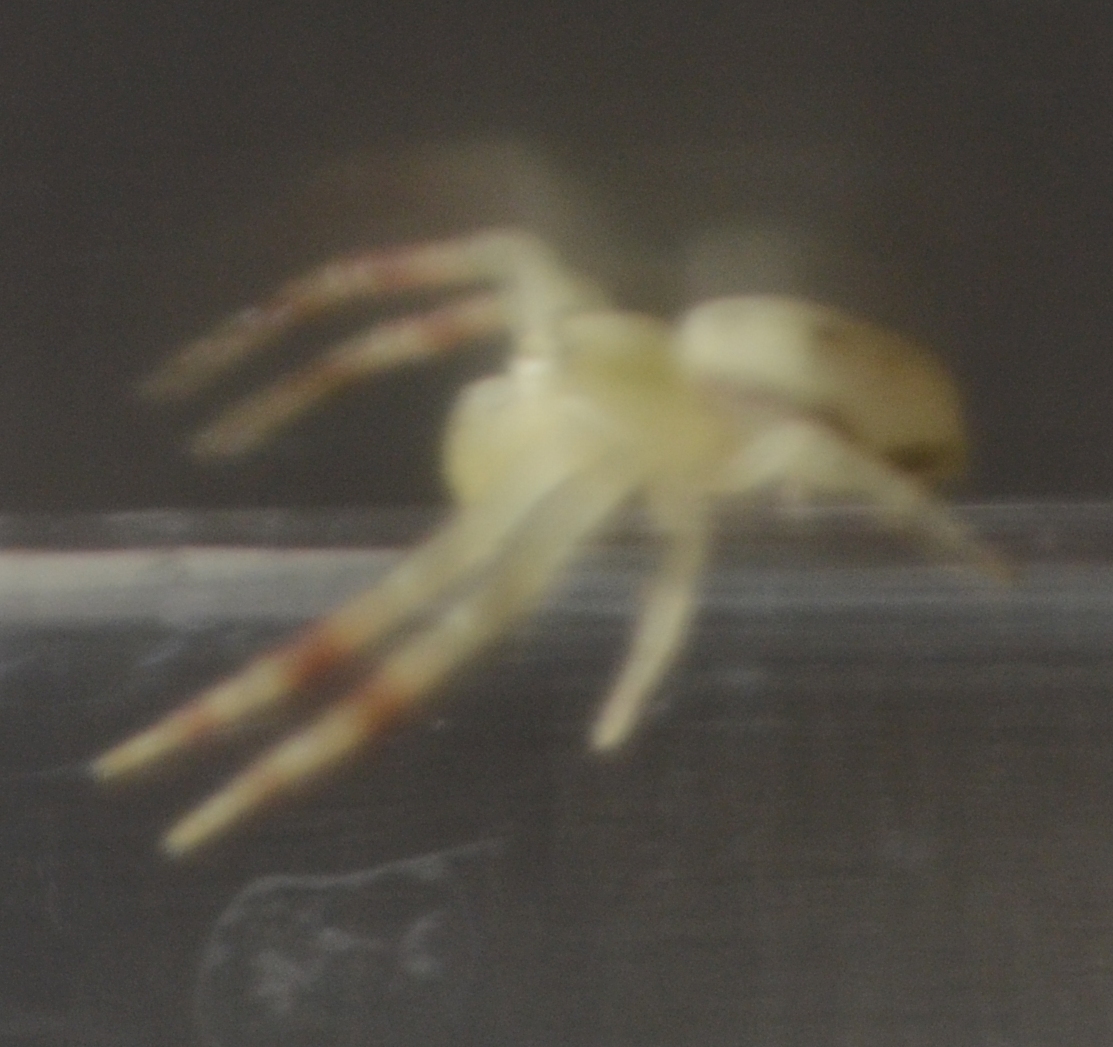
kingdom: Animalia
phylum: Arthropoda
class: Arachnida
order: Araneae
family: Thomisidae
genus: Misumena
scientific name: Misumena vatia
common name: Goldenrod crab spider
